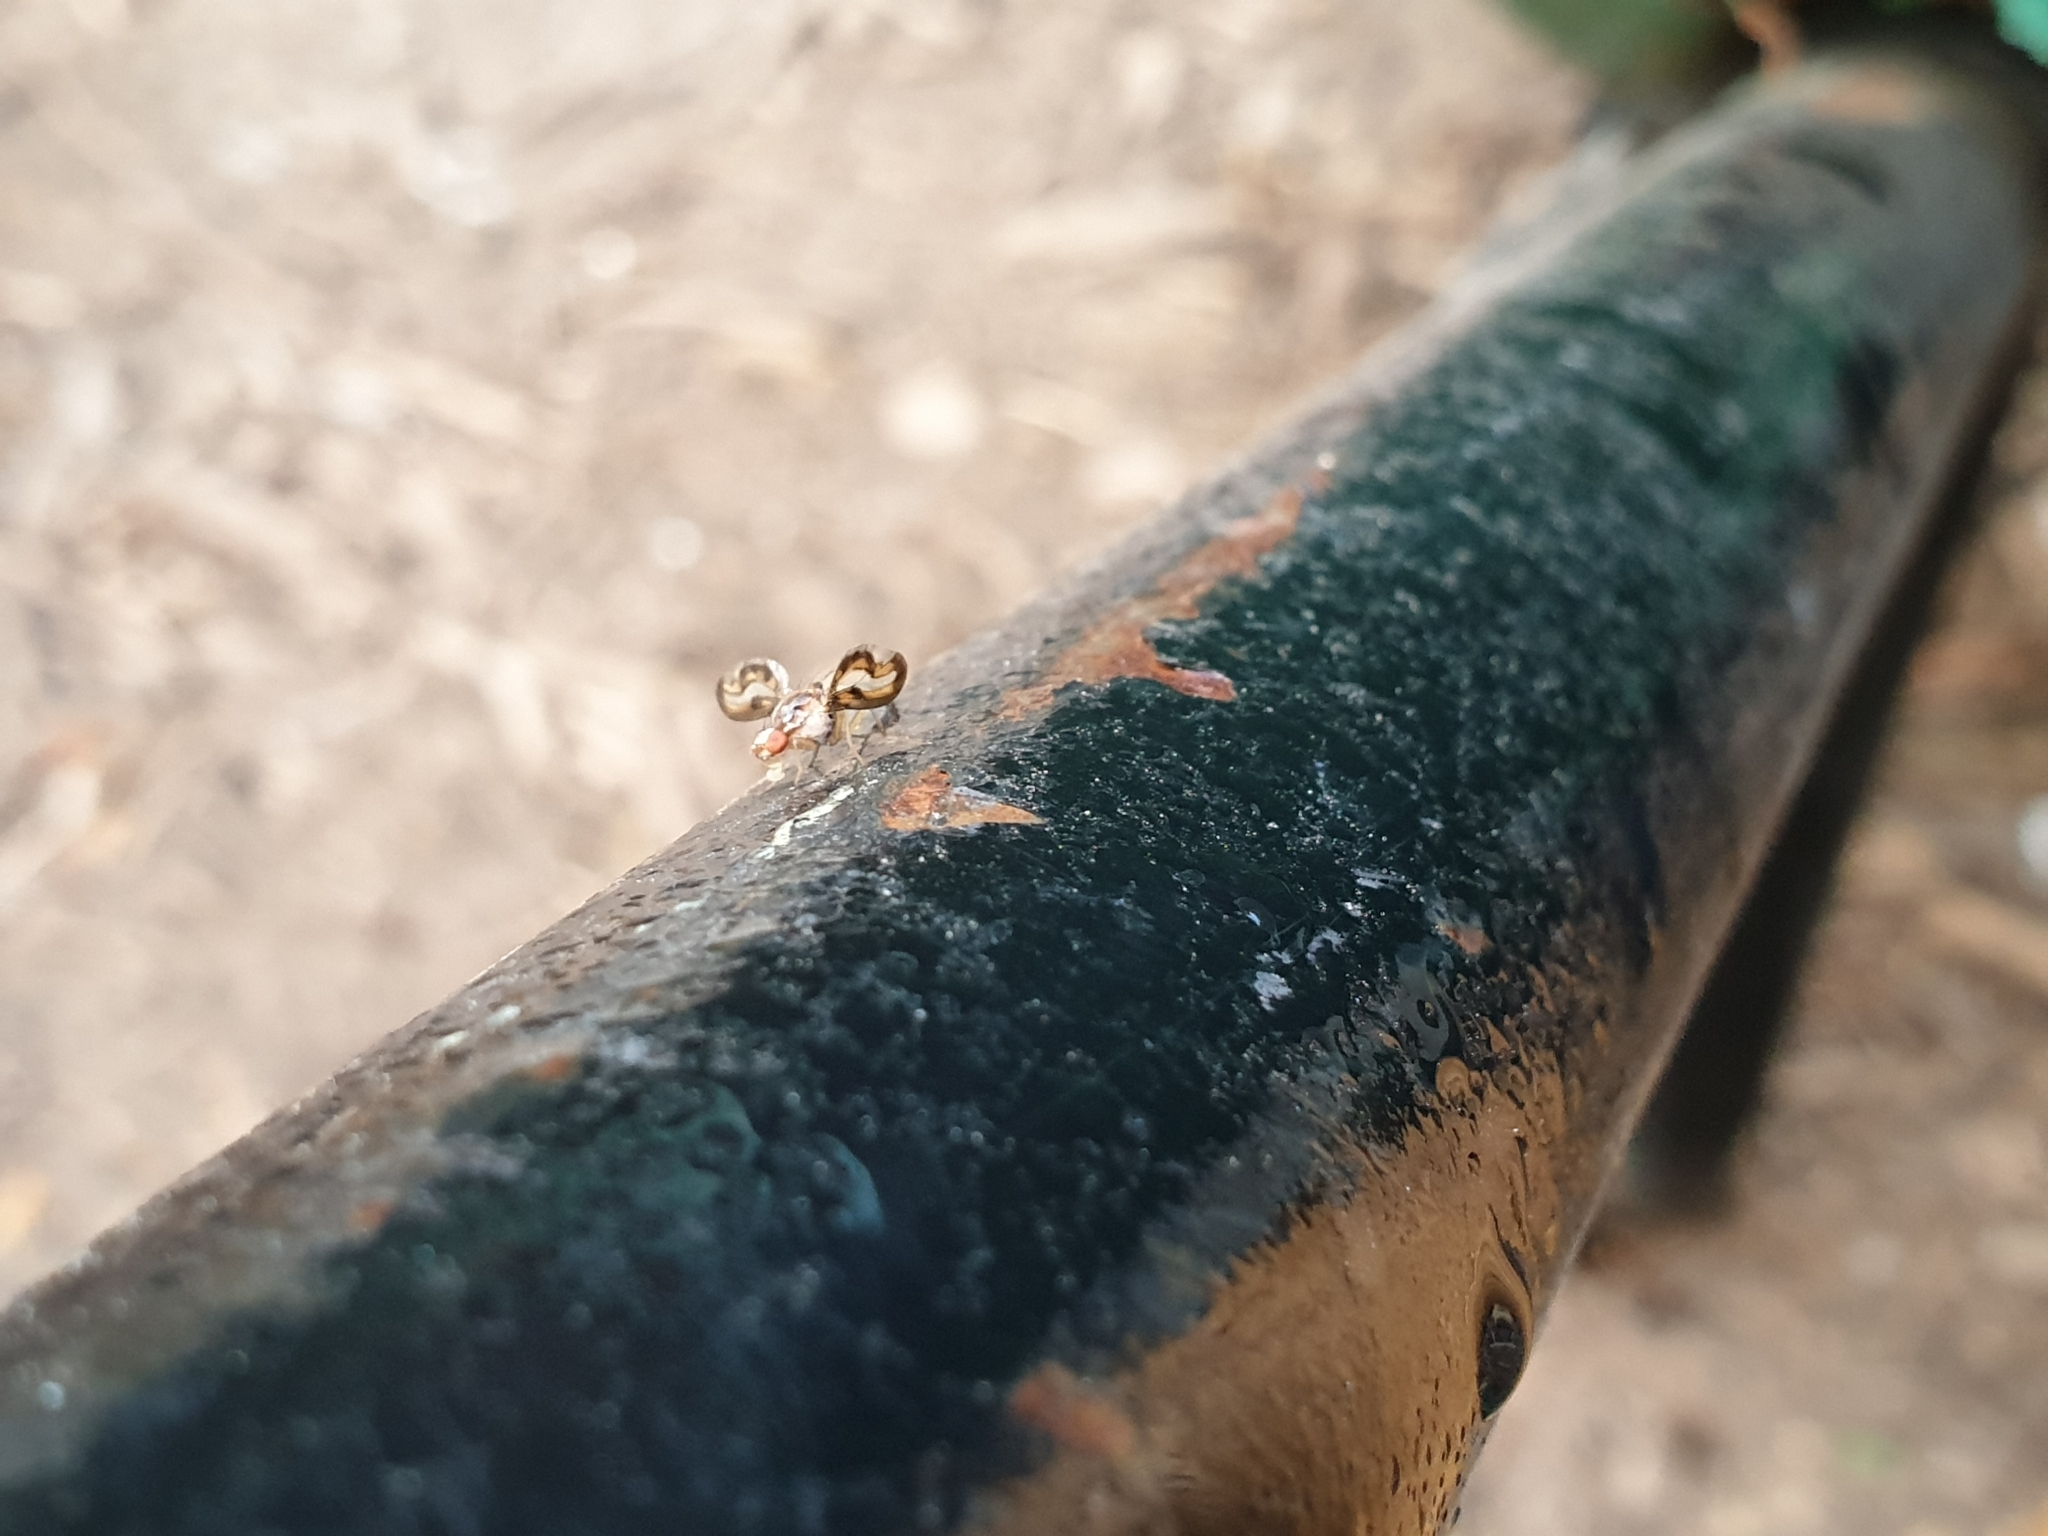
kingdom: Animalia
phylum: Arthropoda
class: Insecta
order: Diptera
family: Pallopteridae
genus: Toxonevra
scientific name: Toxonevra muliebris
